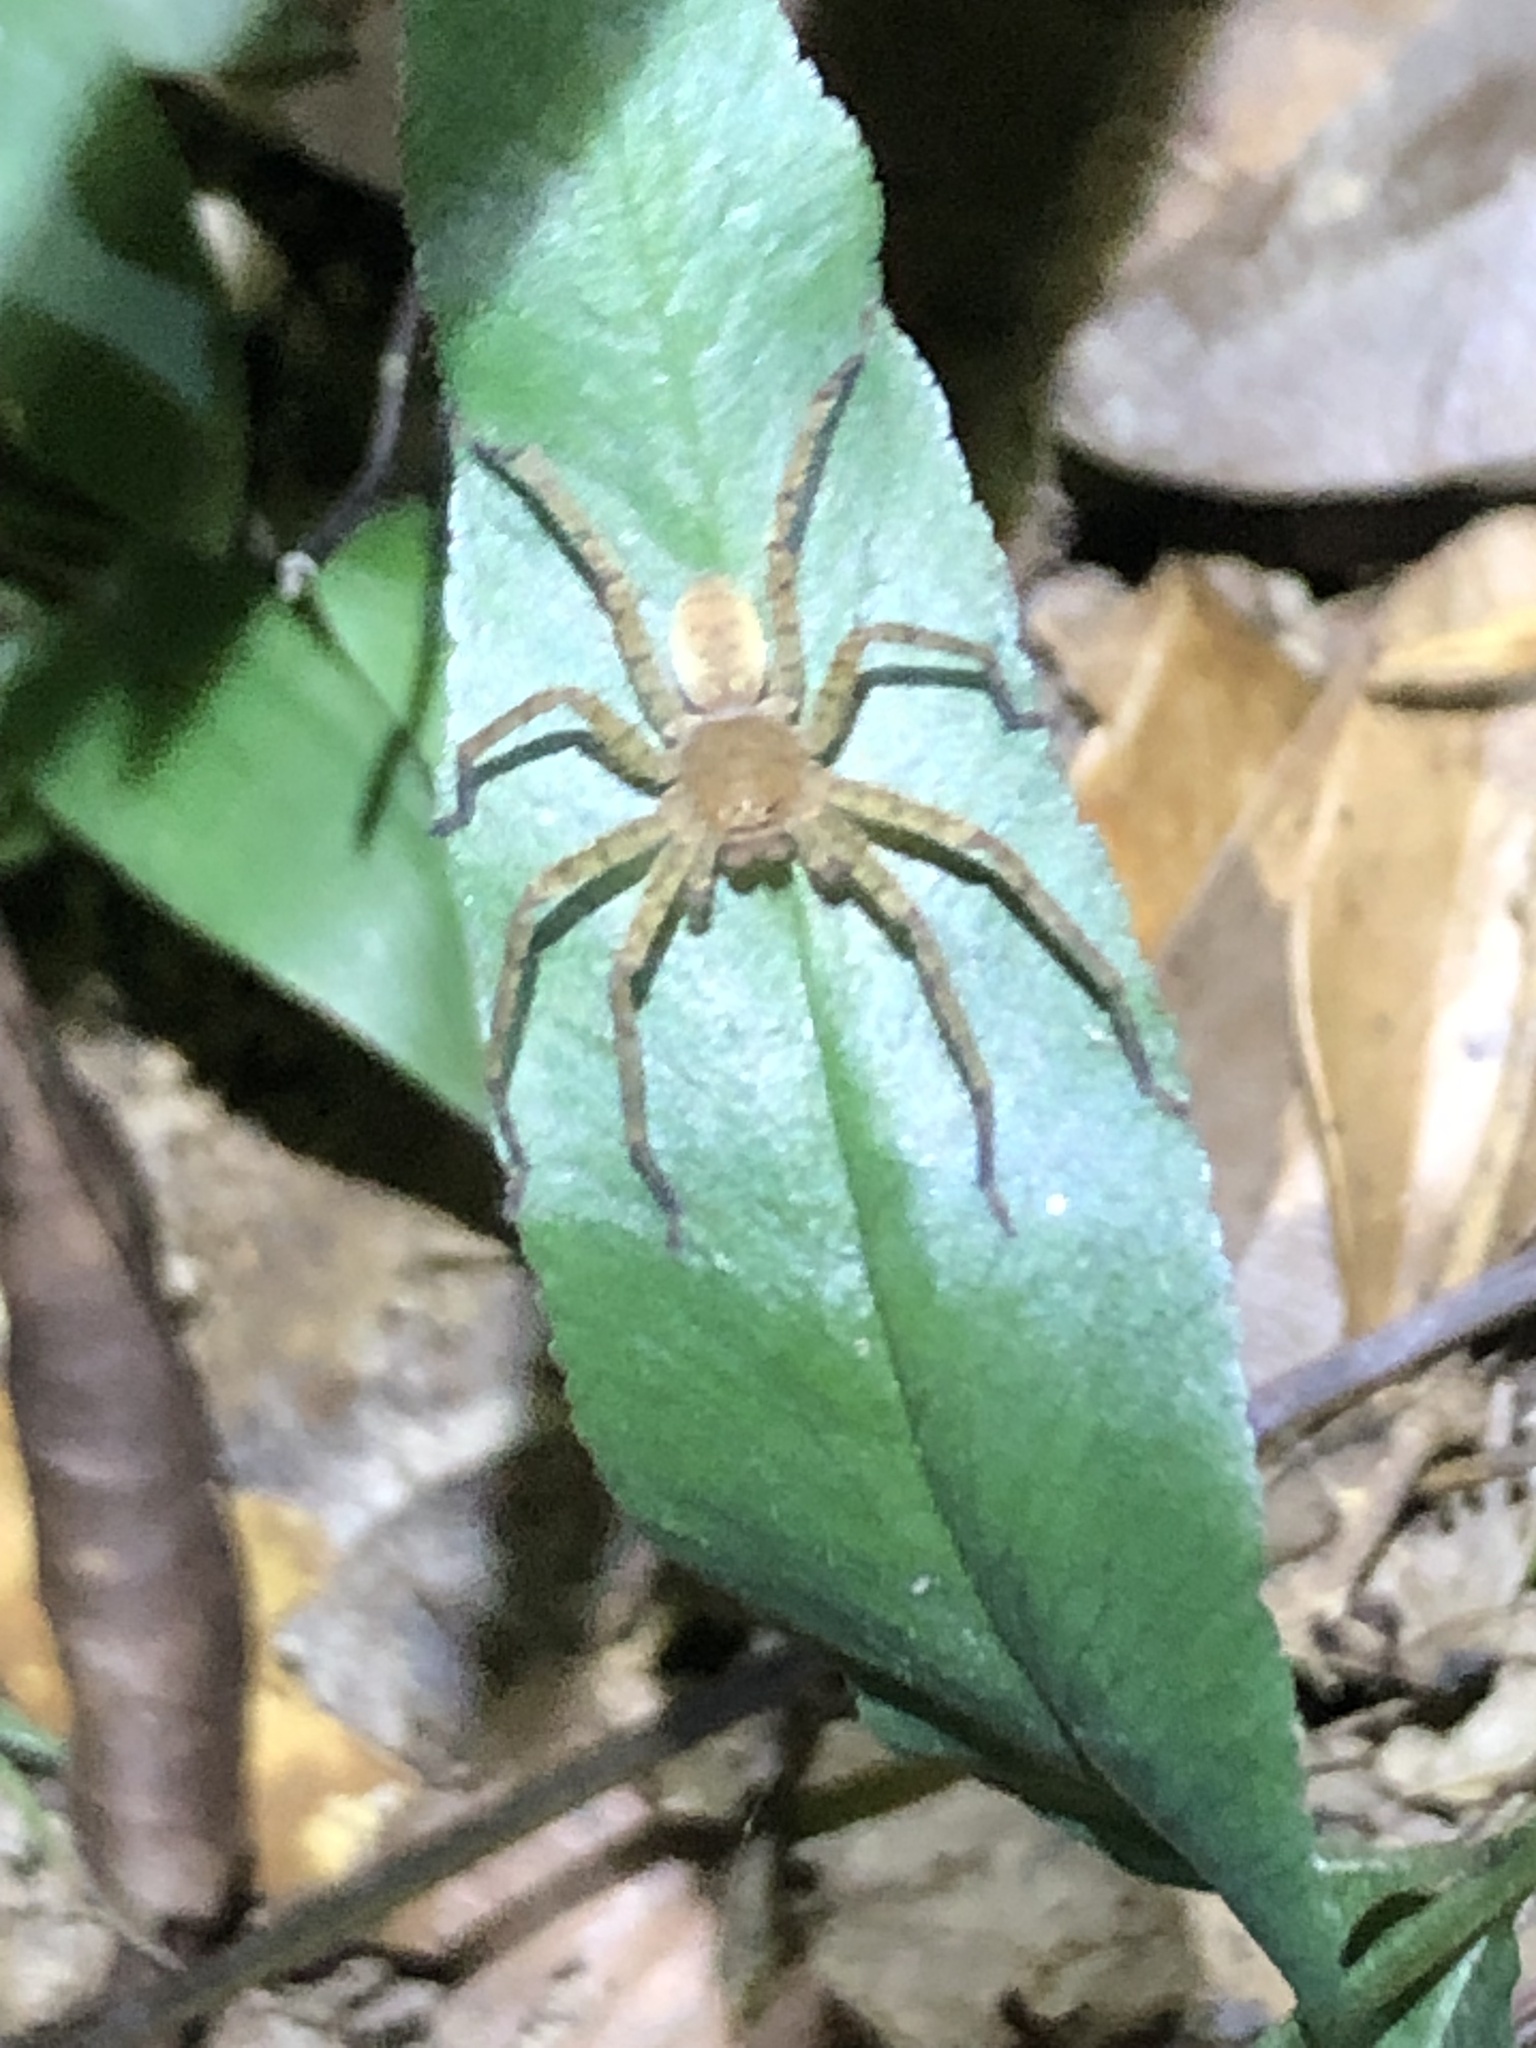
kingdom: Animalia
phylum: Arthropoda
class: Arachnida
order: Araneae
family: Sparassidae
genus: Heteropoda
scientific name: Heteropoda amphora
